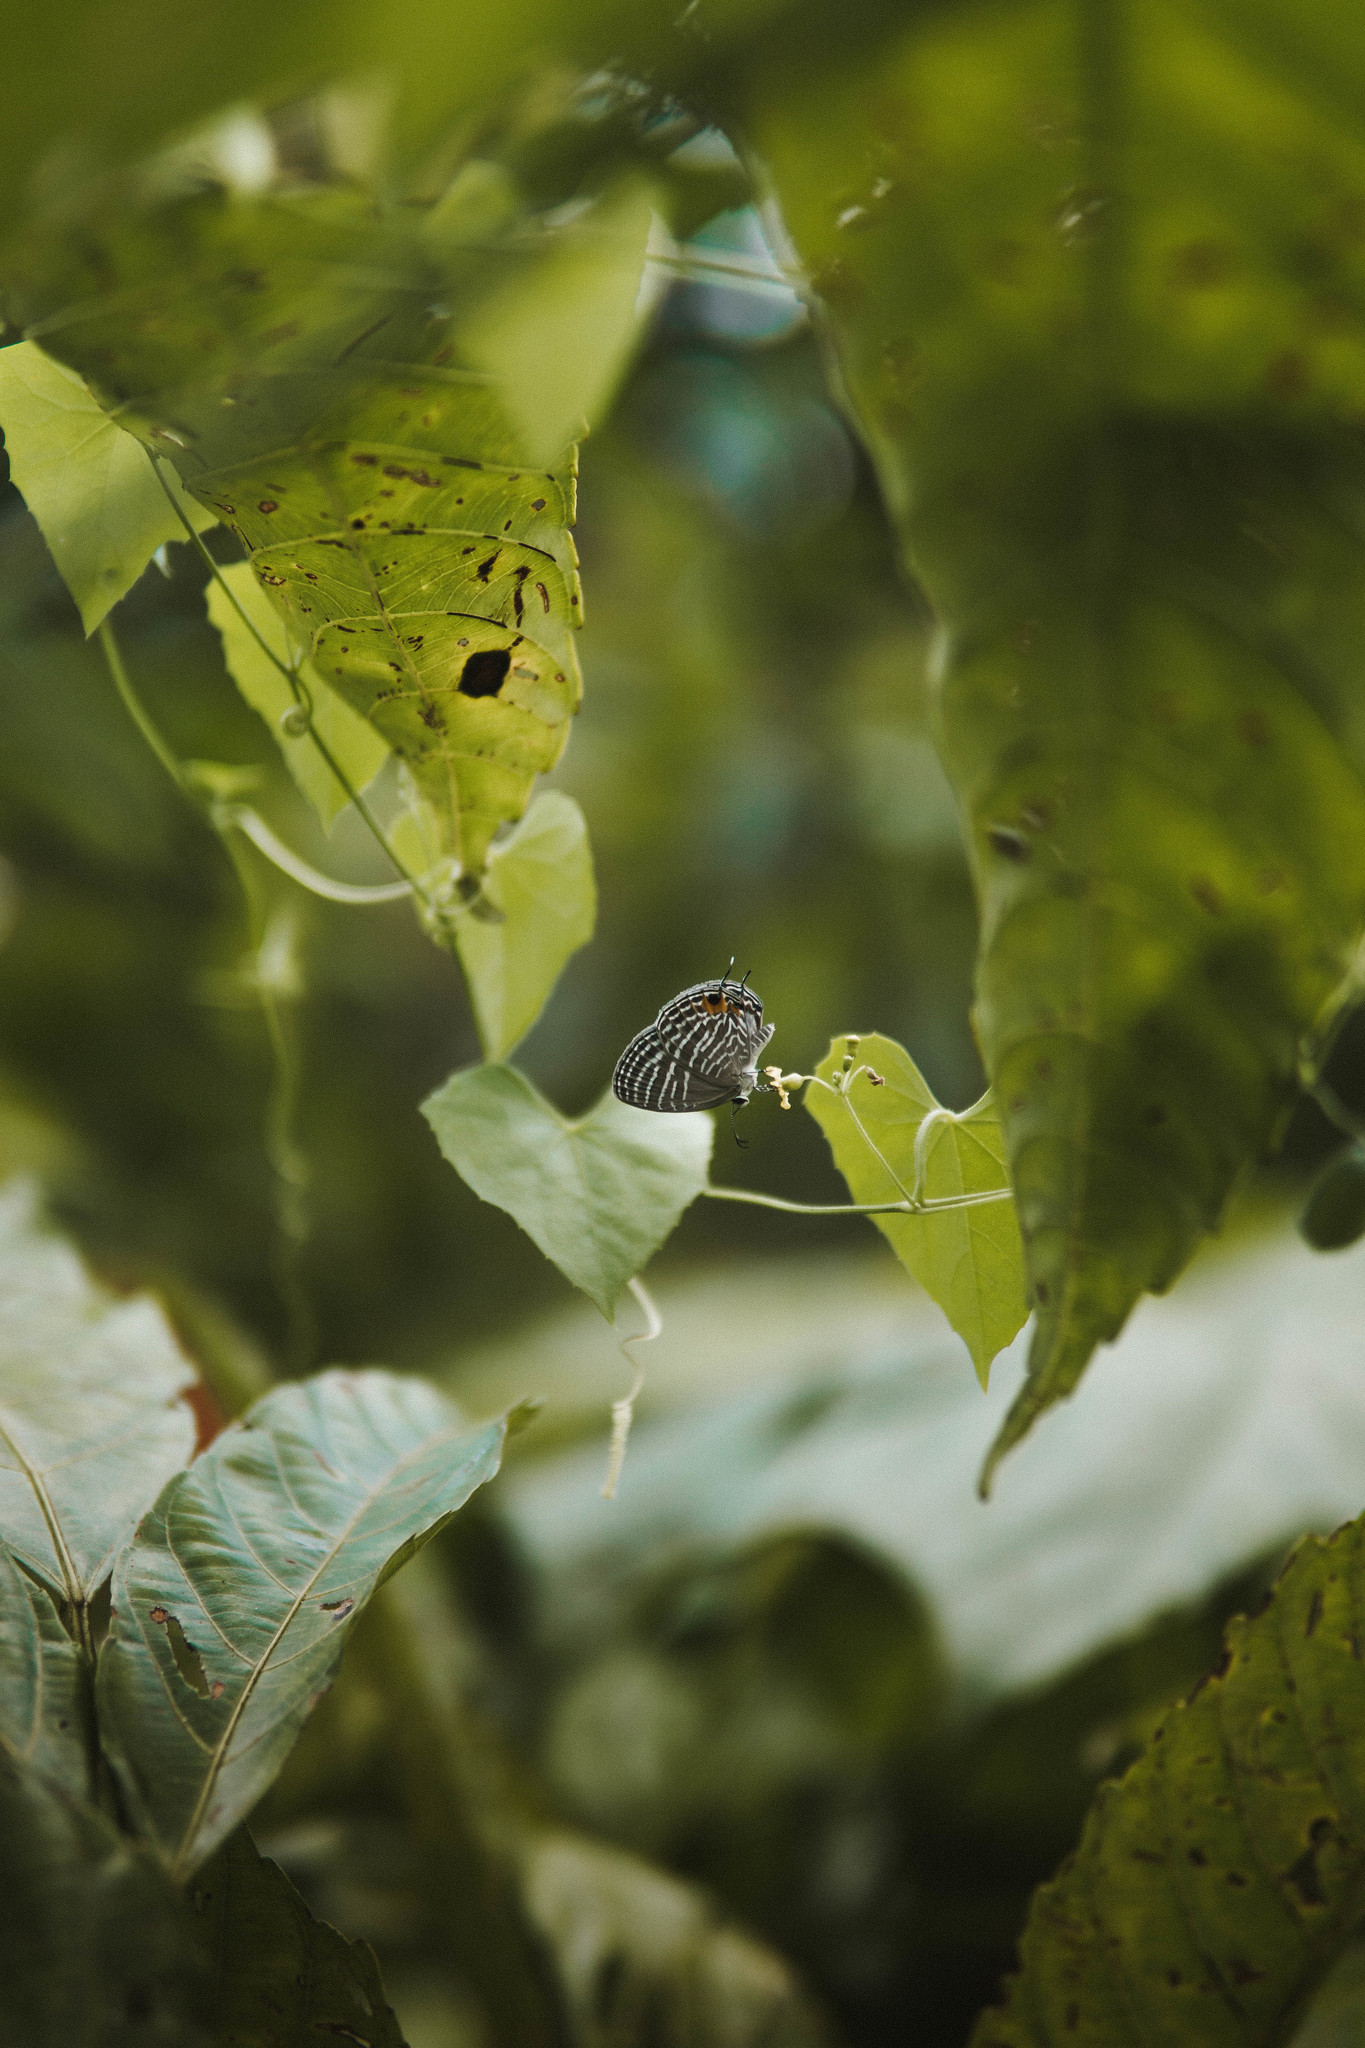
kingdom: Animalia
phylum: Arthropoda
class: Insecta
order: Lepidoptera
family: Lycaenidae
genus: Jamides
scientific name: Jamides celeno
